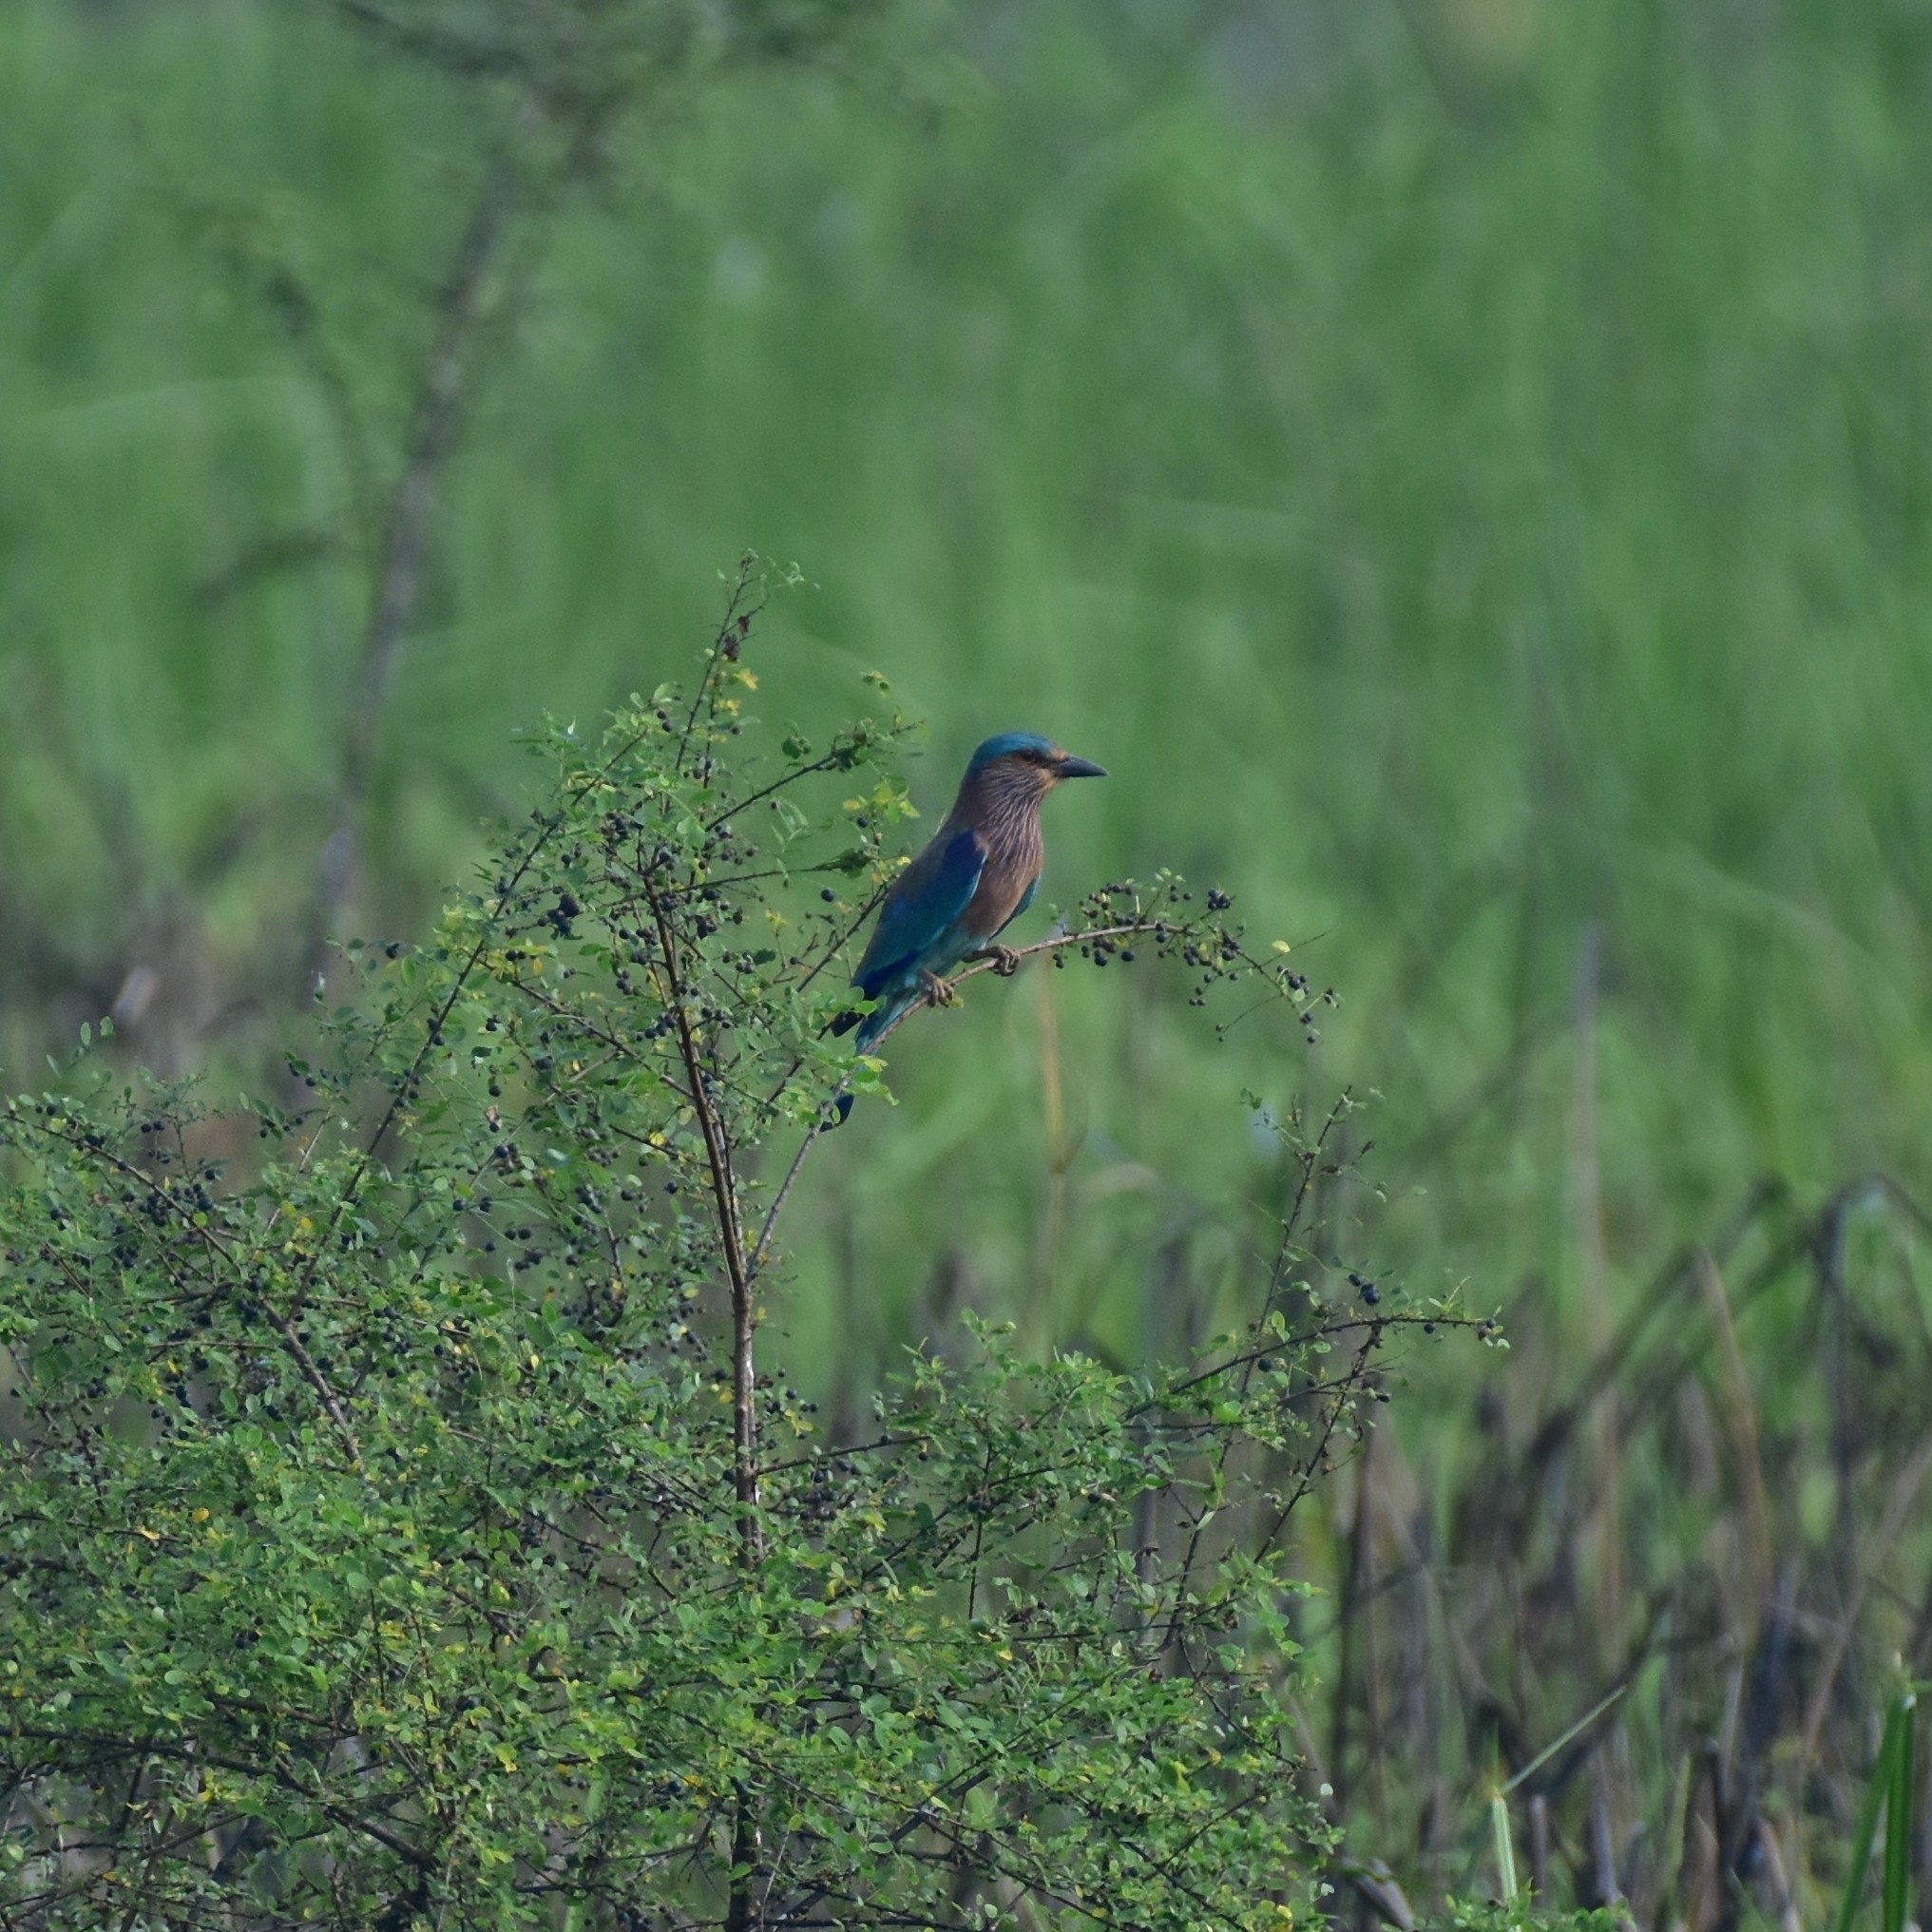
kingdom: Animalia
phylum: Chordata
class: Aves
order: Coraciiformes
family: Coraciidae
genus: Coracias
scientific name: Coracias benghalensis
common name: Indian roller
